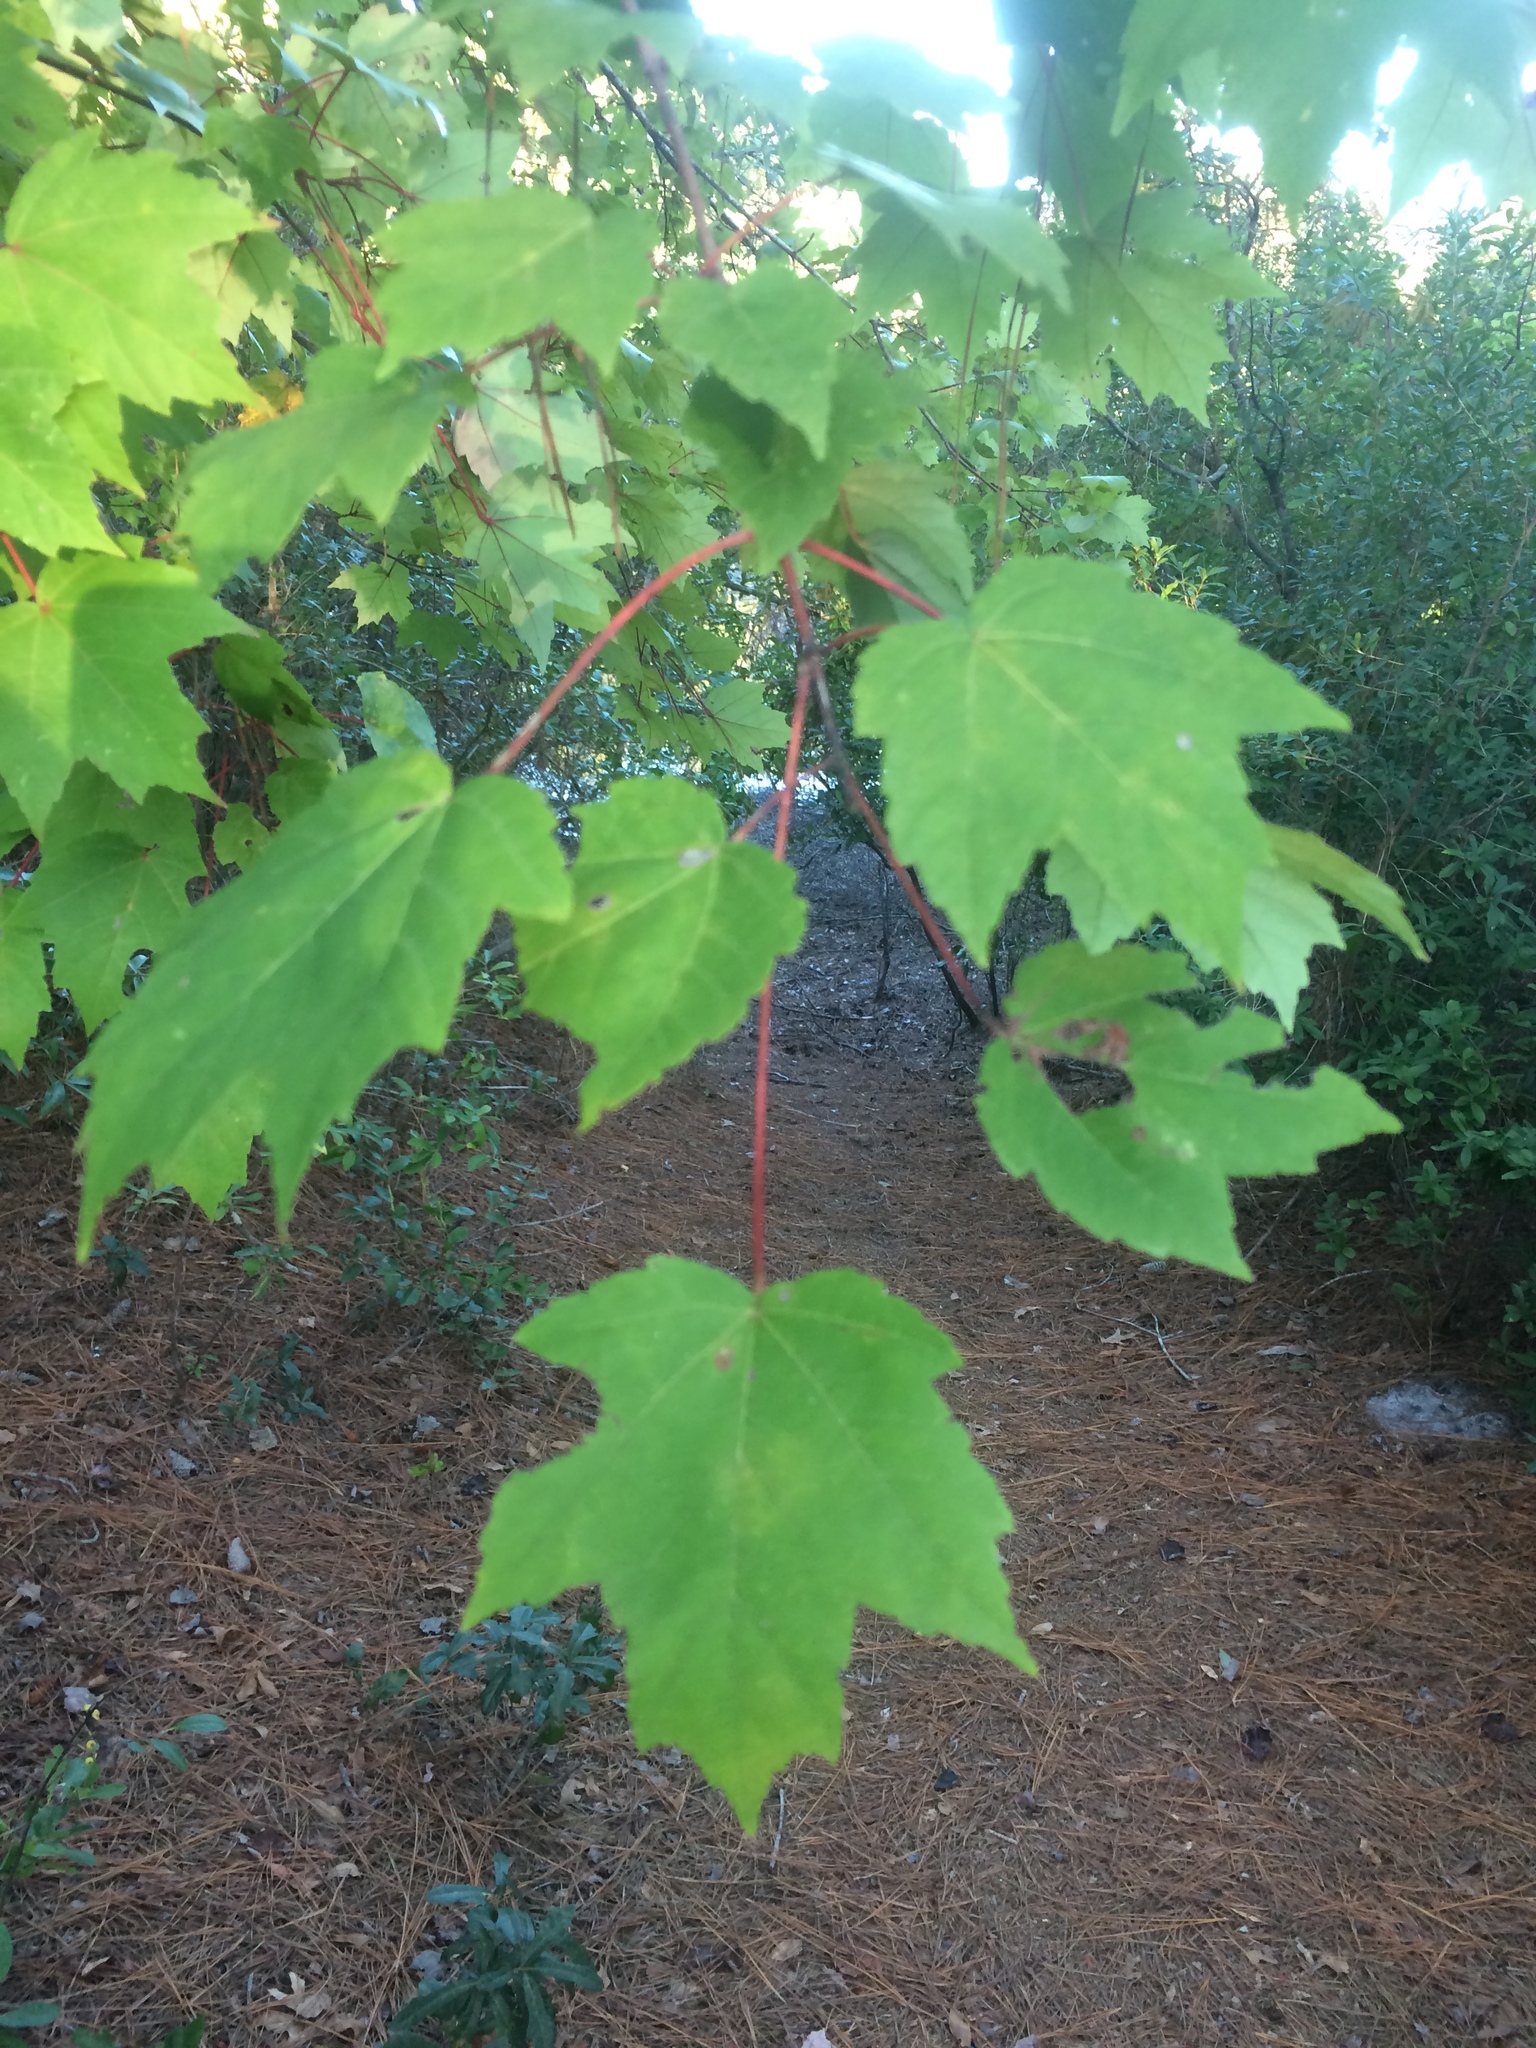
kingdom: Plantae
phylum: Tracheophyta
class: Magnoliopsida
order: Sapindales
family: Sapindaceae
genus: Acer
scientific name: Acer rubrum
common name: Red maple
